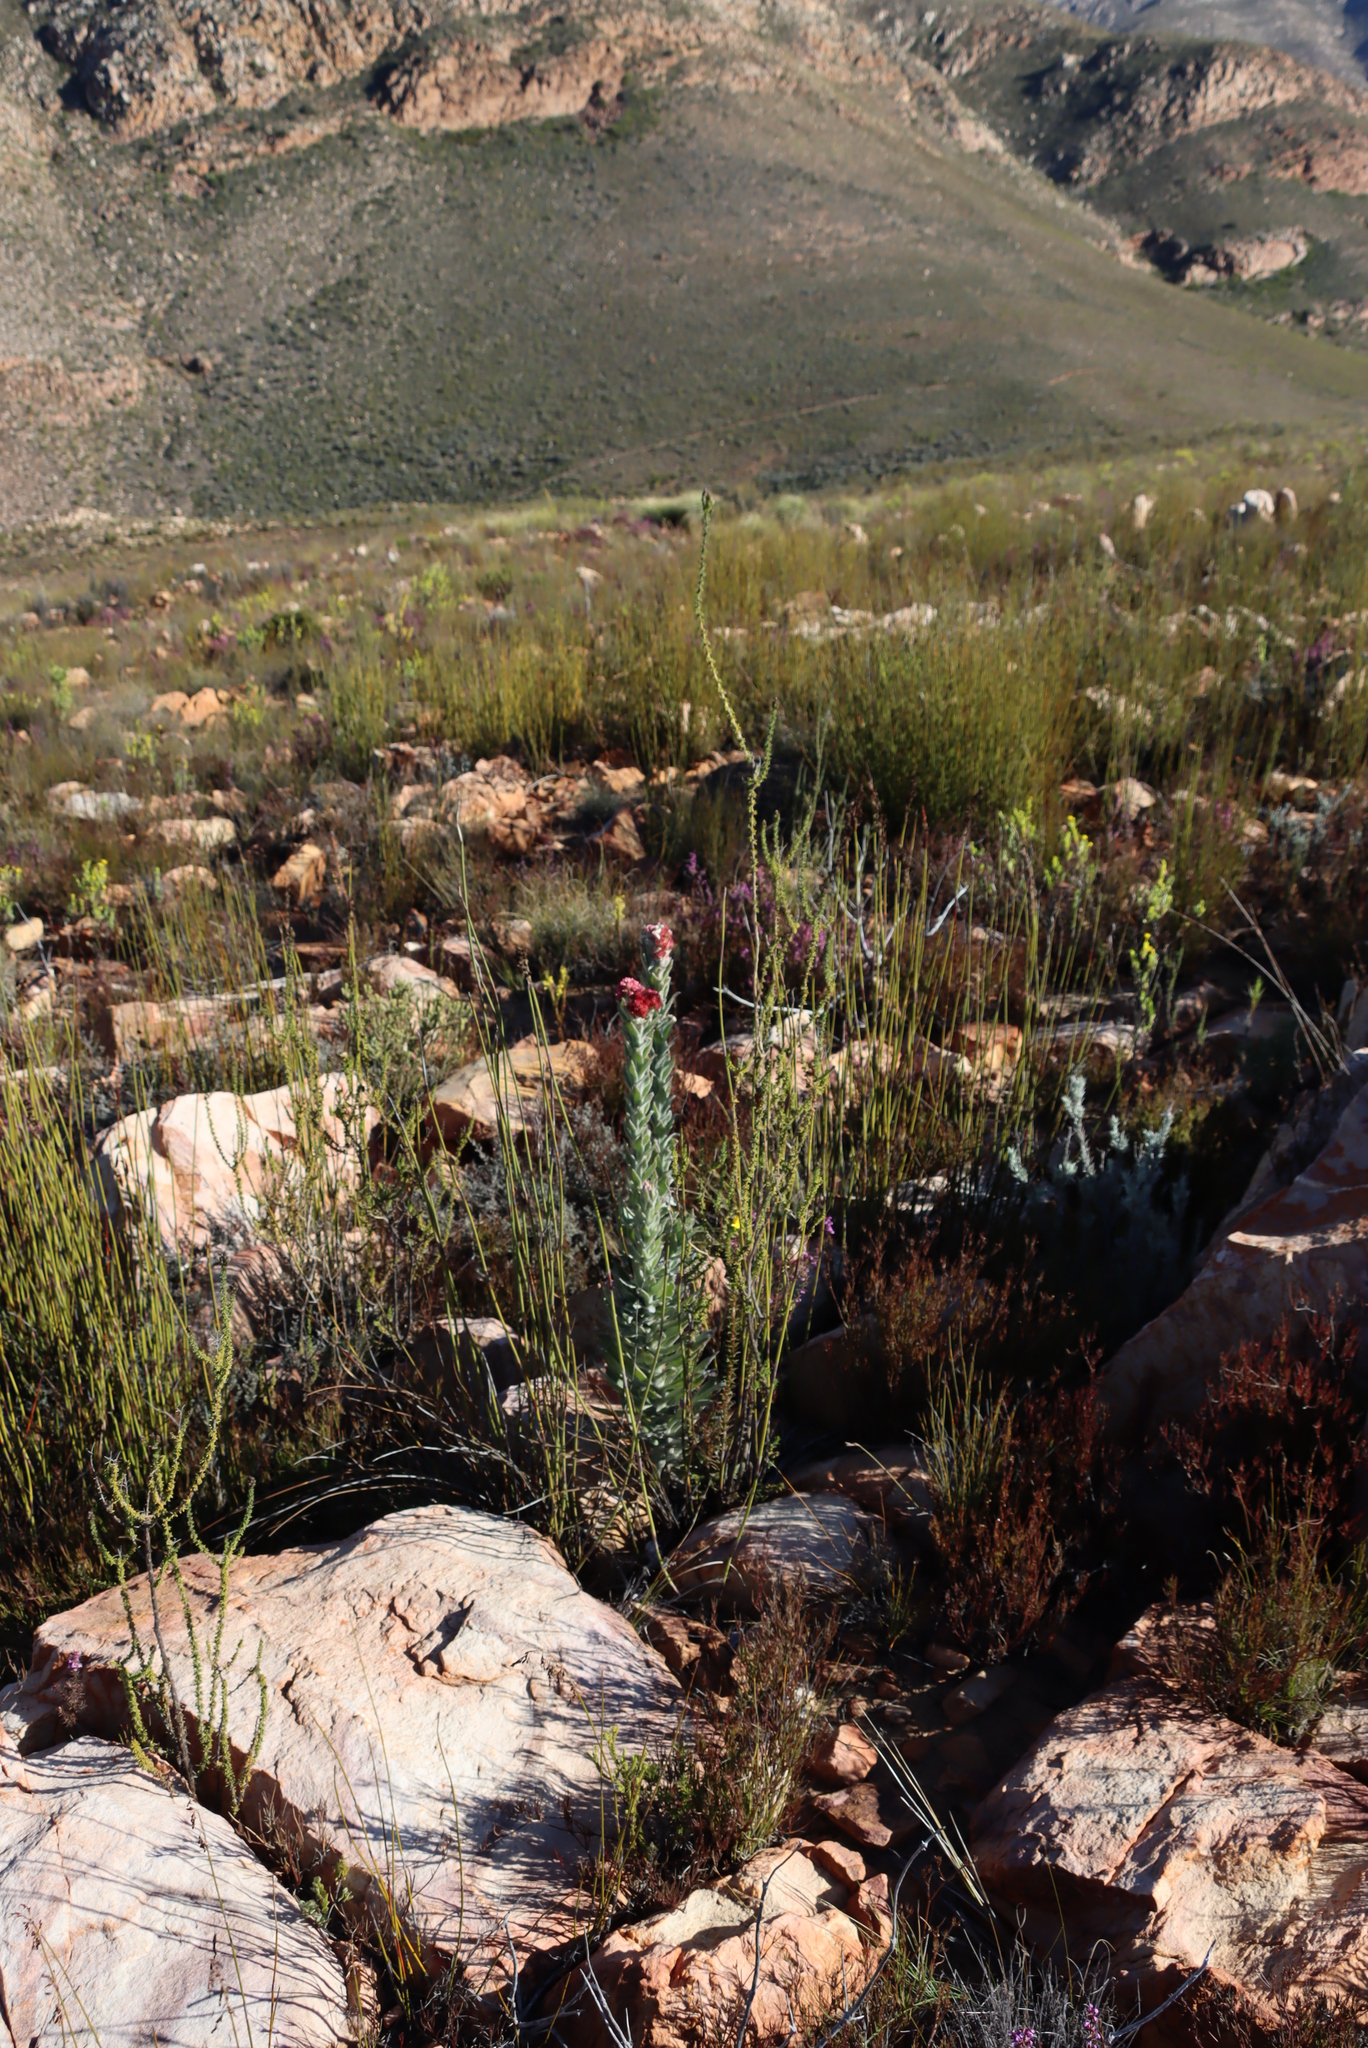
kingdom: Plantae
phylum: Tracheophyta
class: Magnoliopsida
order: Asterales
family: Asteraceae
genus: Syncarpha
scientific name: Syncarpha milleflora
